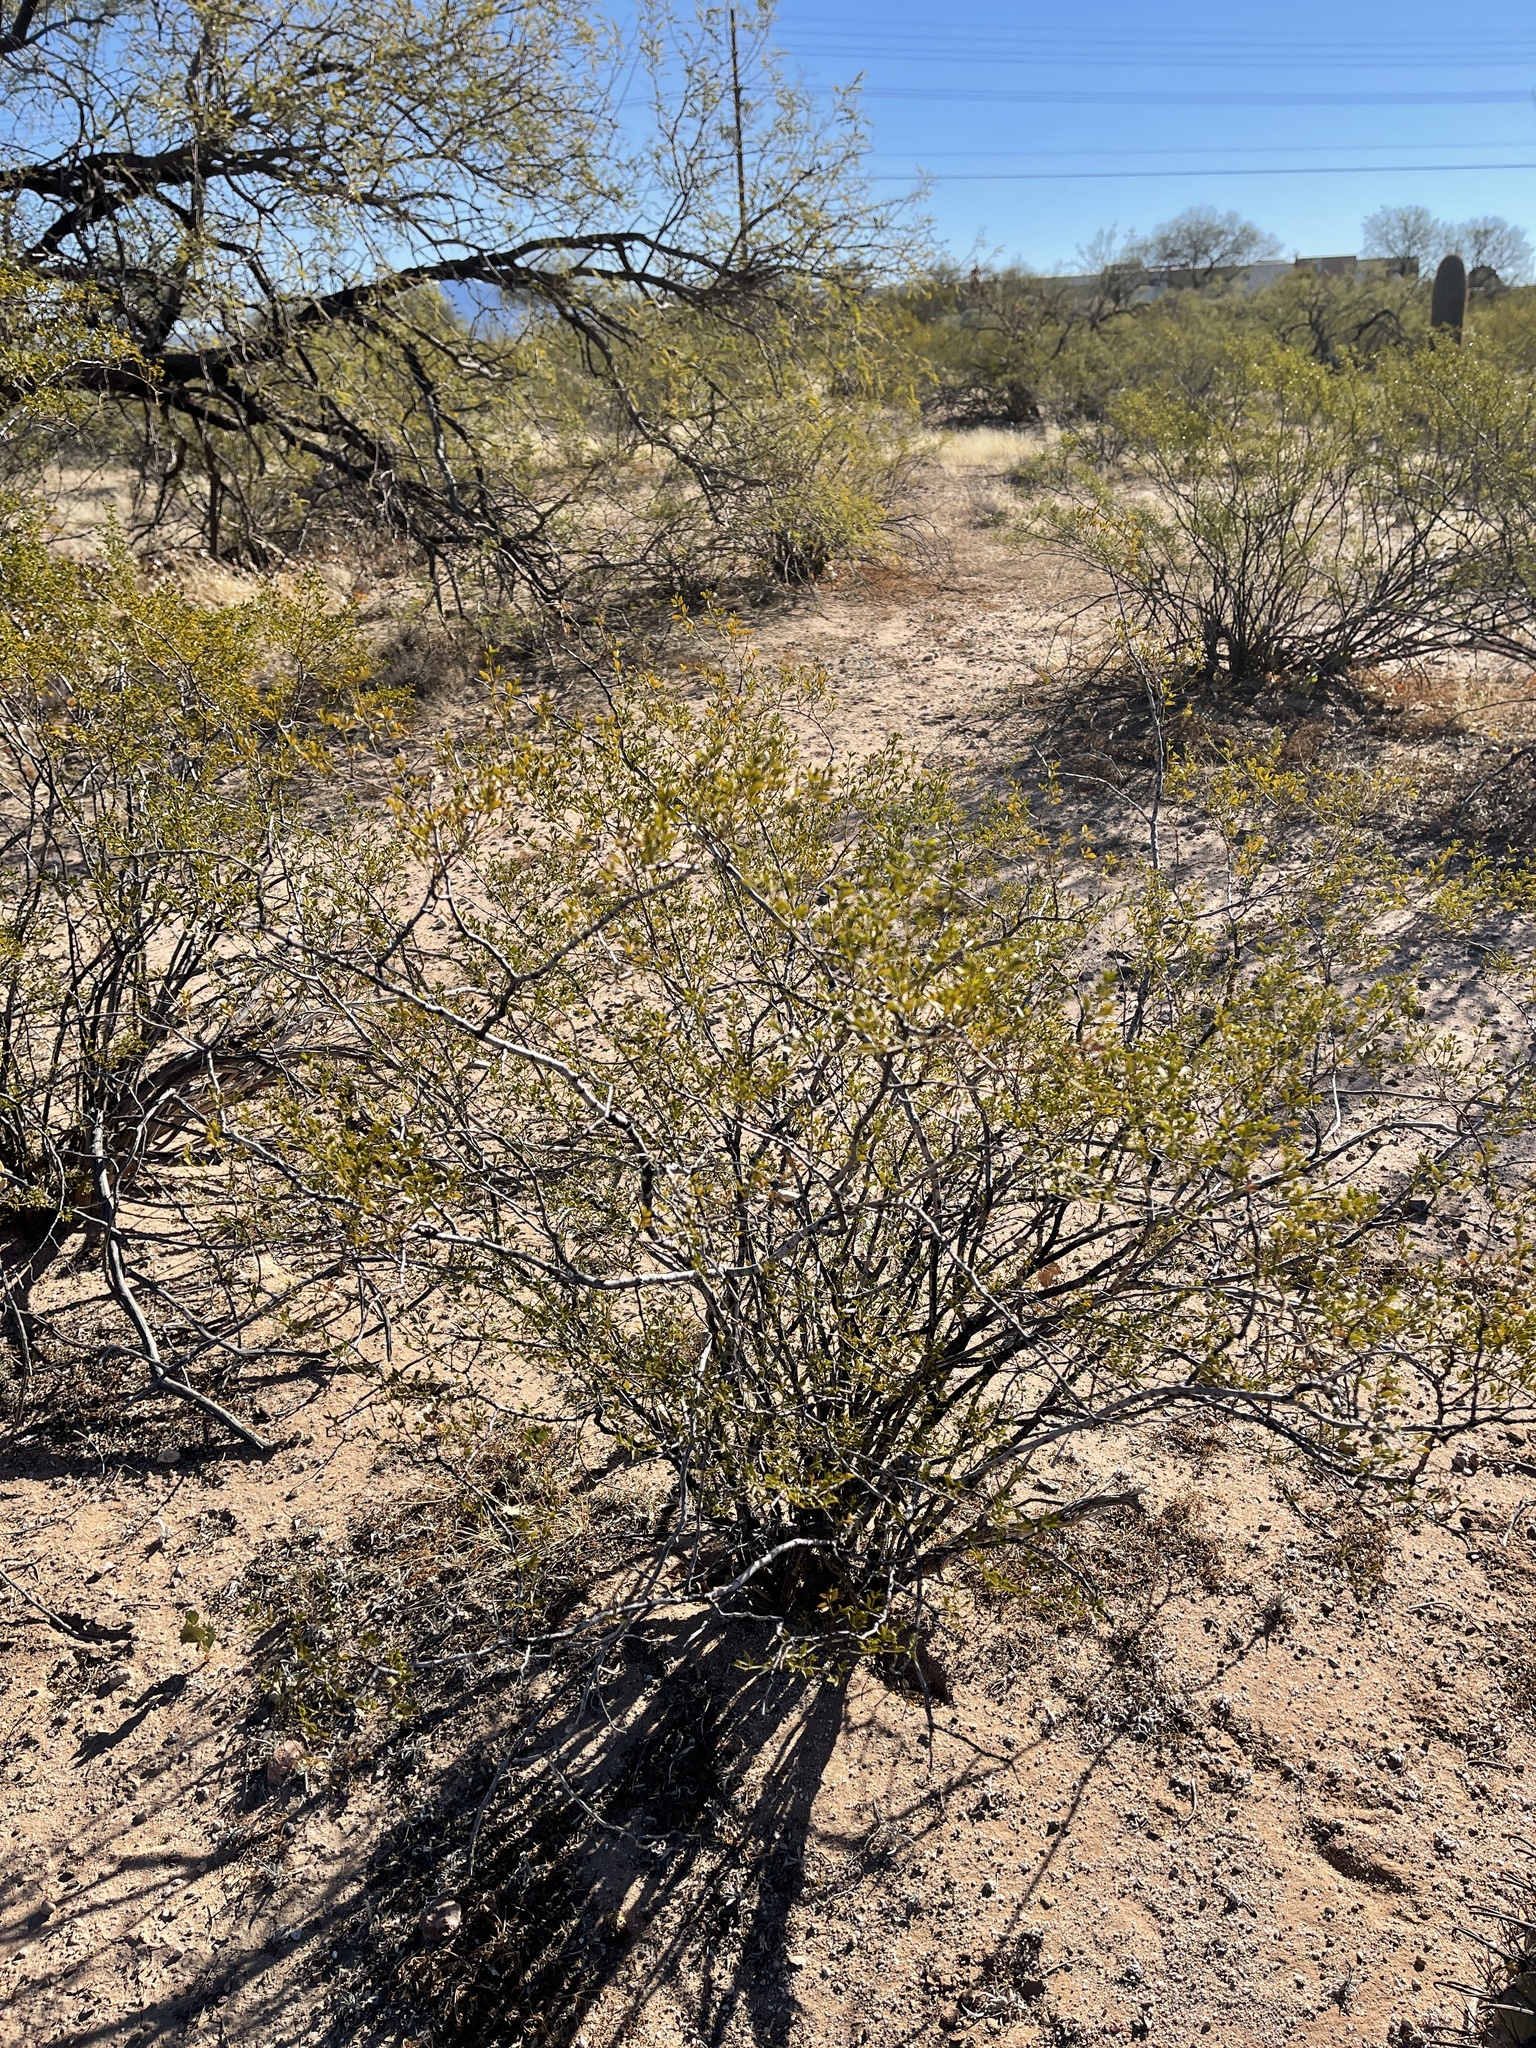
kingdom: Plantae
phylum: Tracheophyta
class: Magnoliopsida
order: Zygophyllales
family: Zygophyllaceae
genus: Larrea
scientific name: Larrea tridentata
